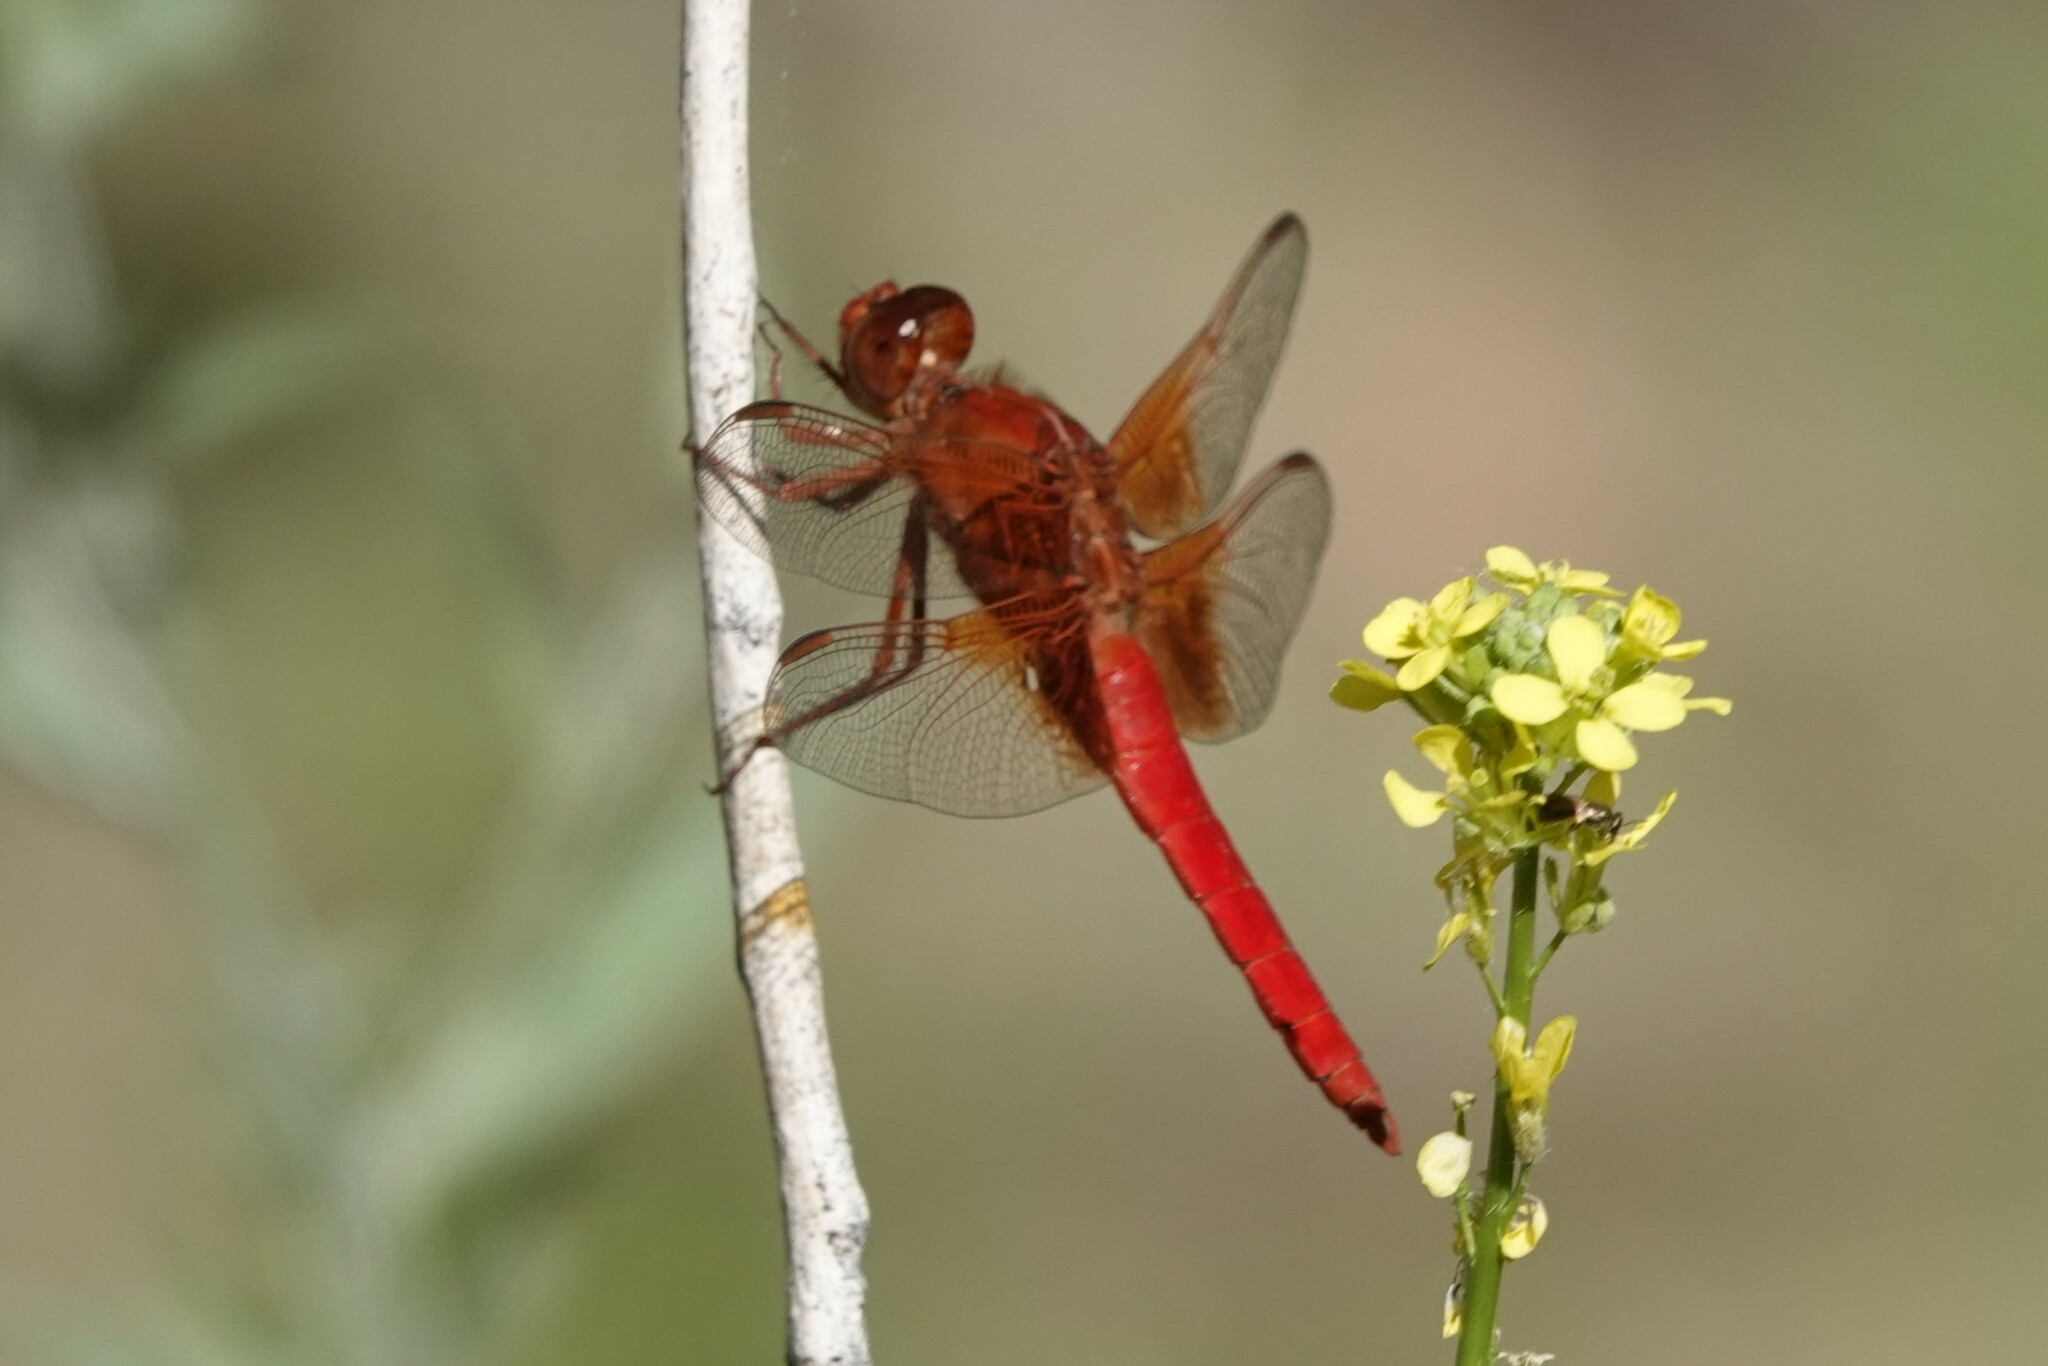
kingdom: Animalia
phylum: Arthropoda
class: Insecta
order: Odonata
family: Libellulidae
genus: Libellula
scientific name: Libellula croceipennis
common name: Neon skimmer
